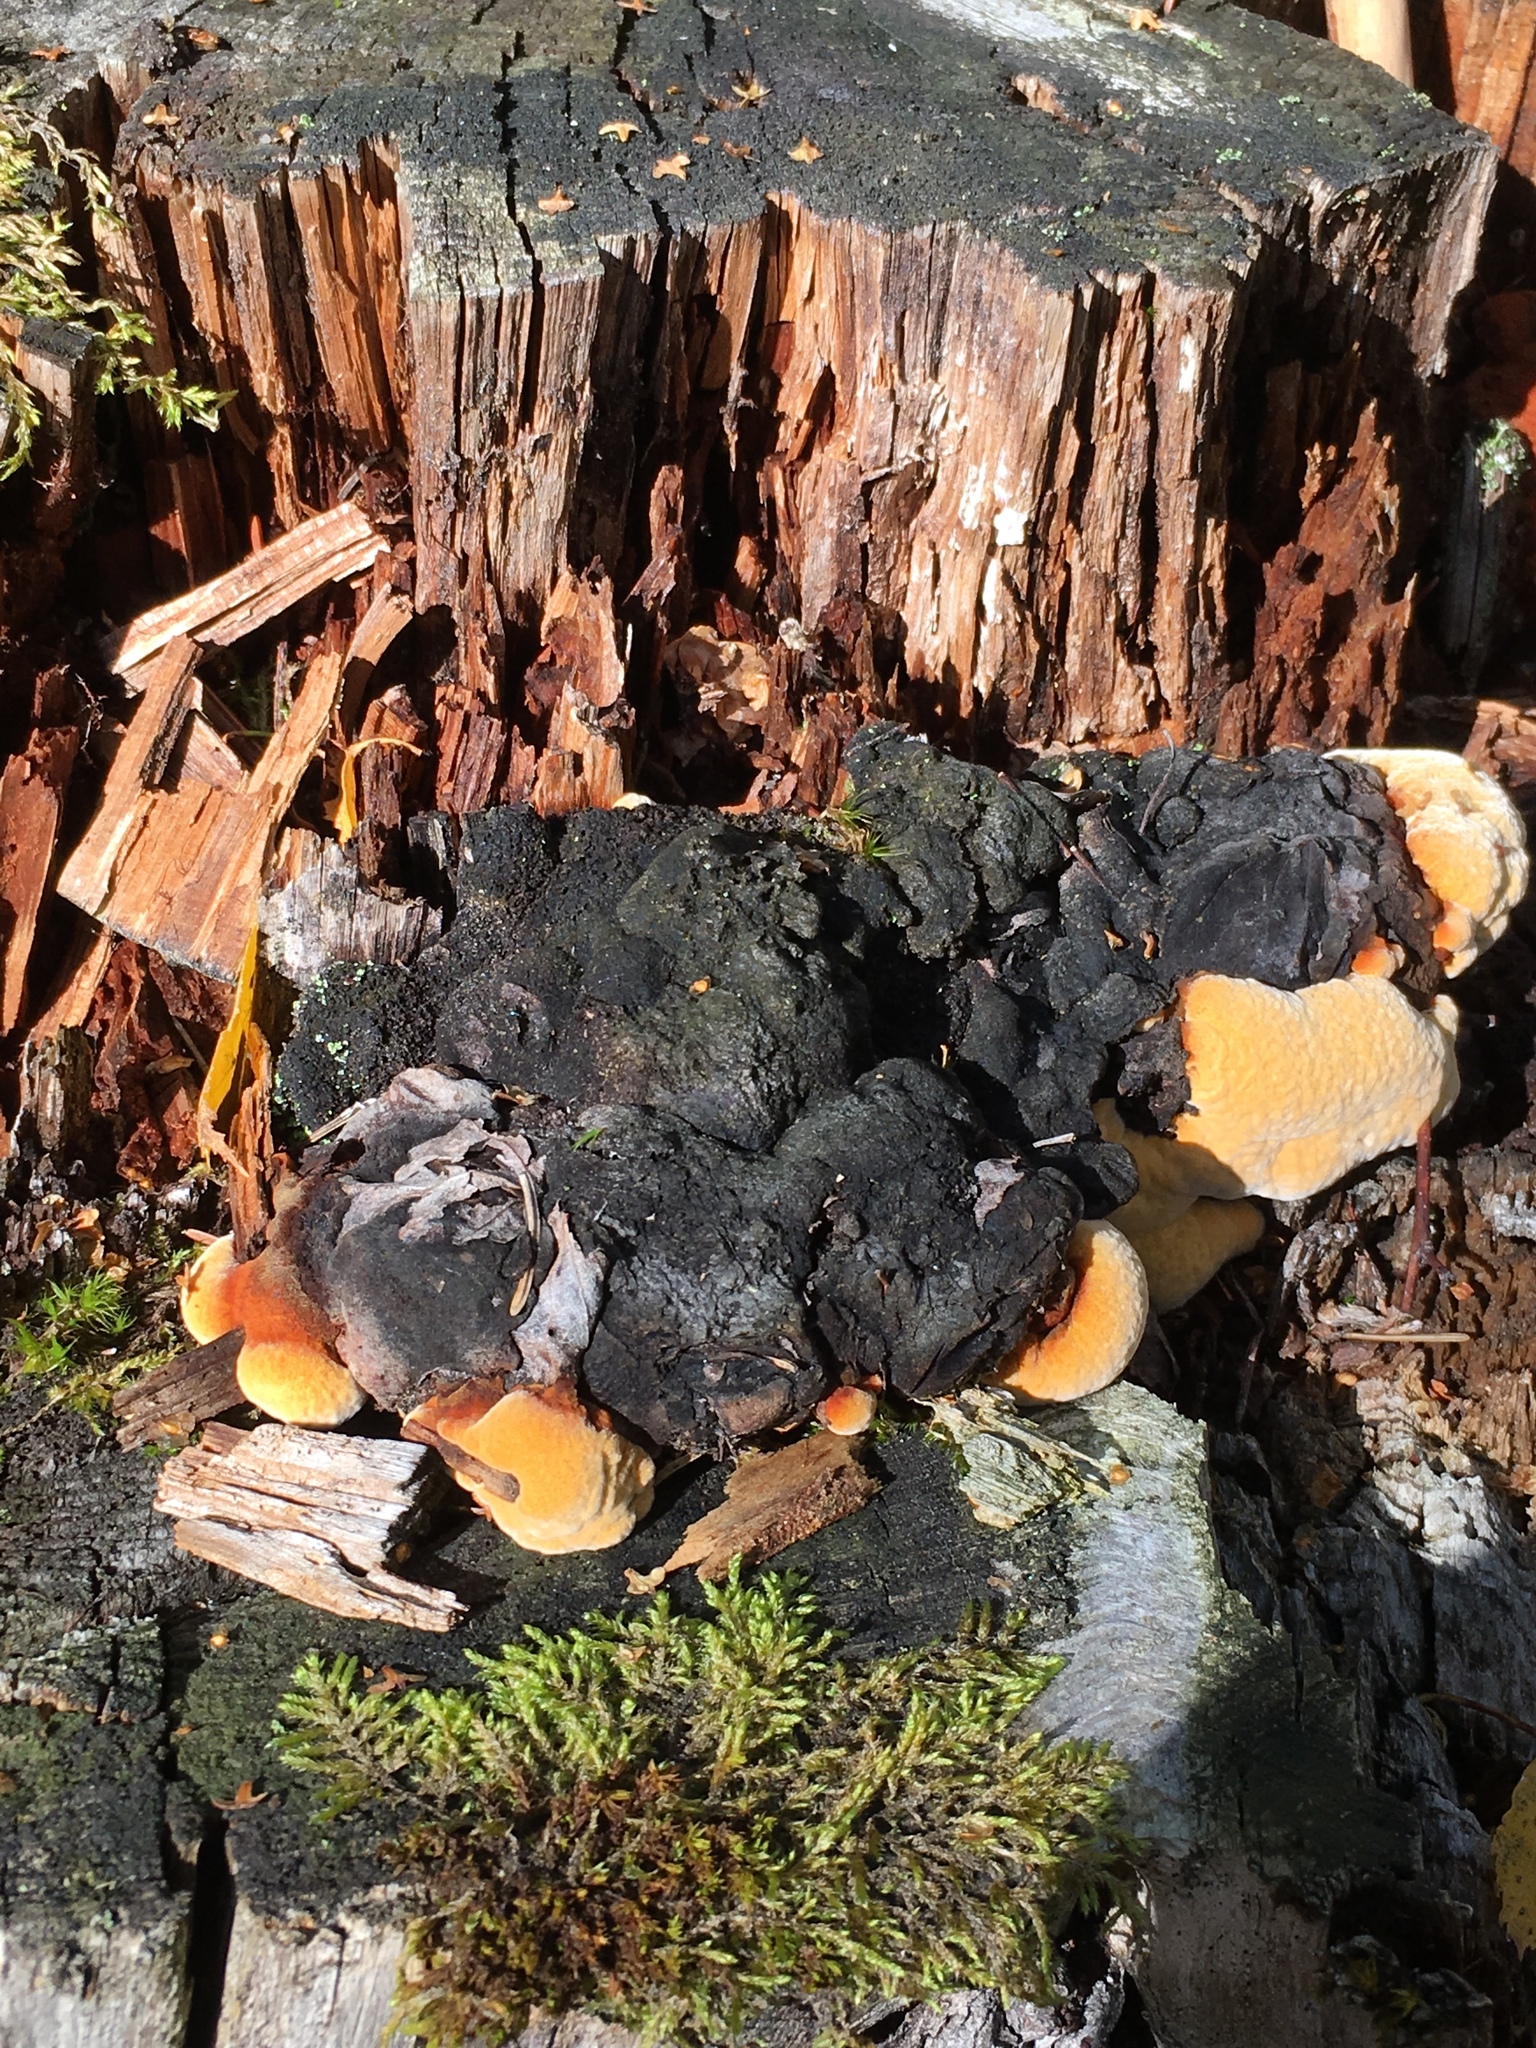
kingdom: Fungi
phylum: Basidiomycota
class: Agaricomycetes
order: Gloeophyllales
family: Gloeophyllaceae
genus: Gloeophyllum
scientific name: Gloeophyllum odoratum
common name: Anise mazegill
